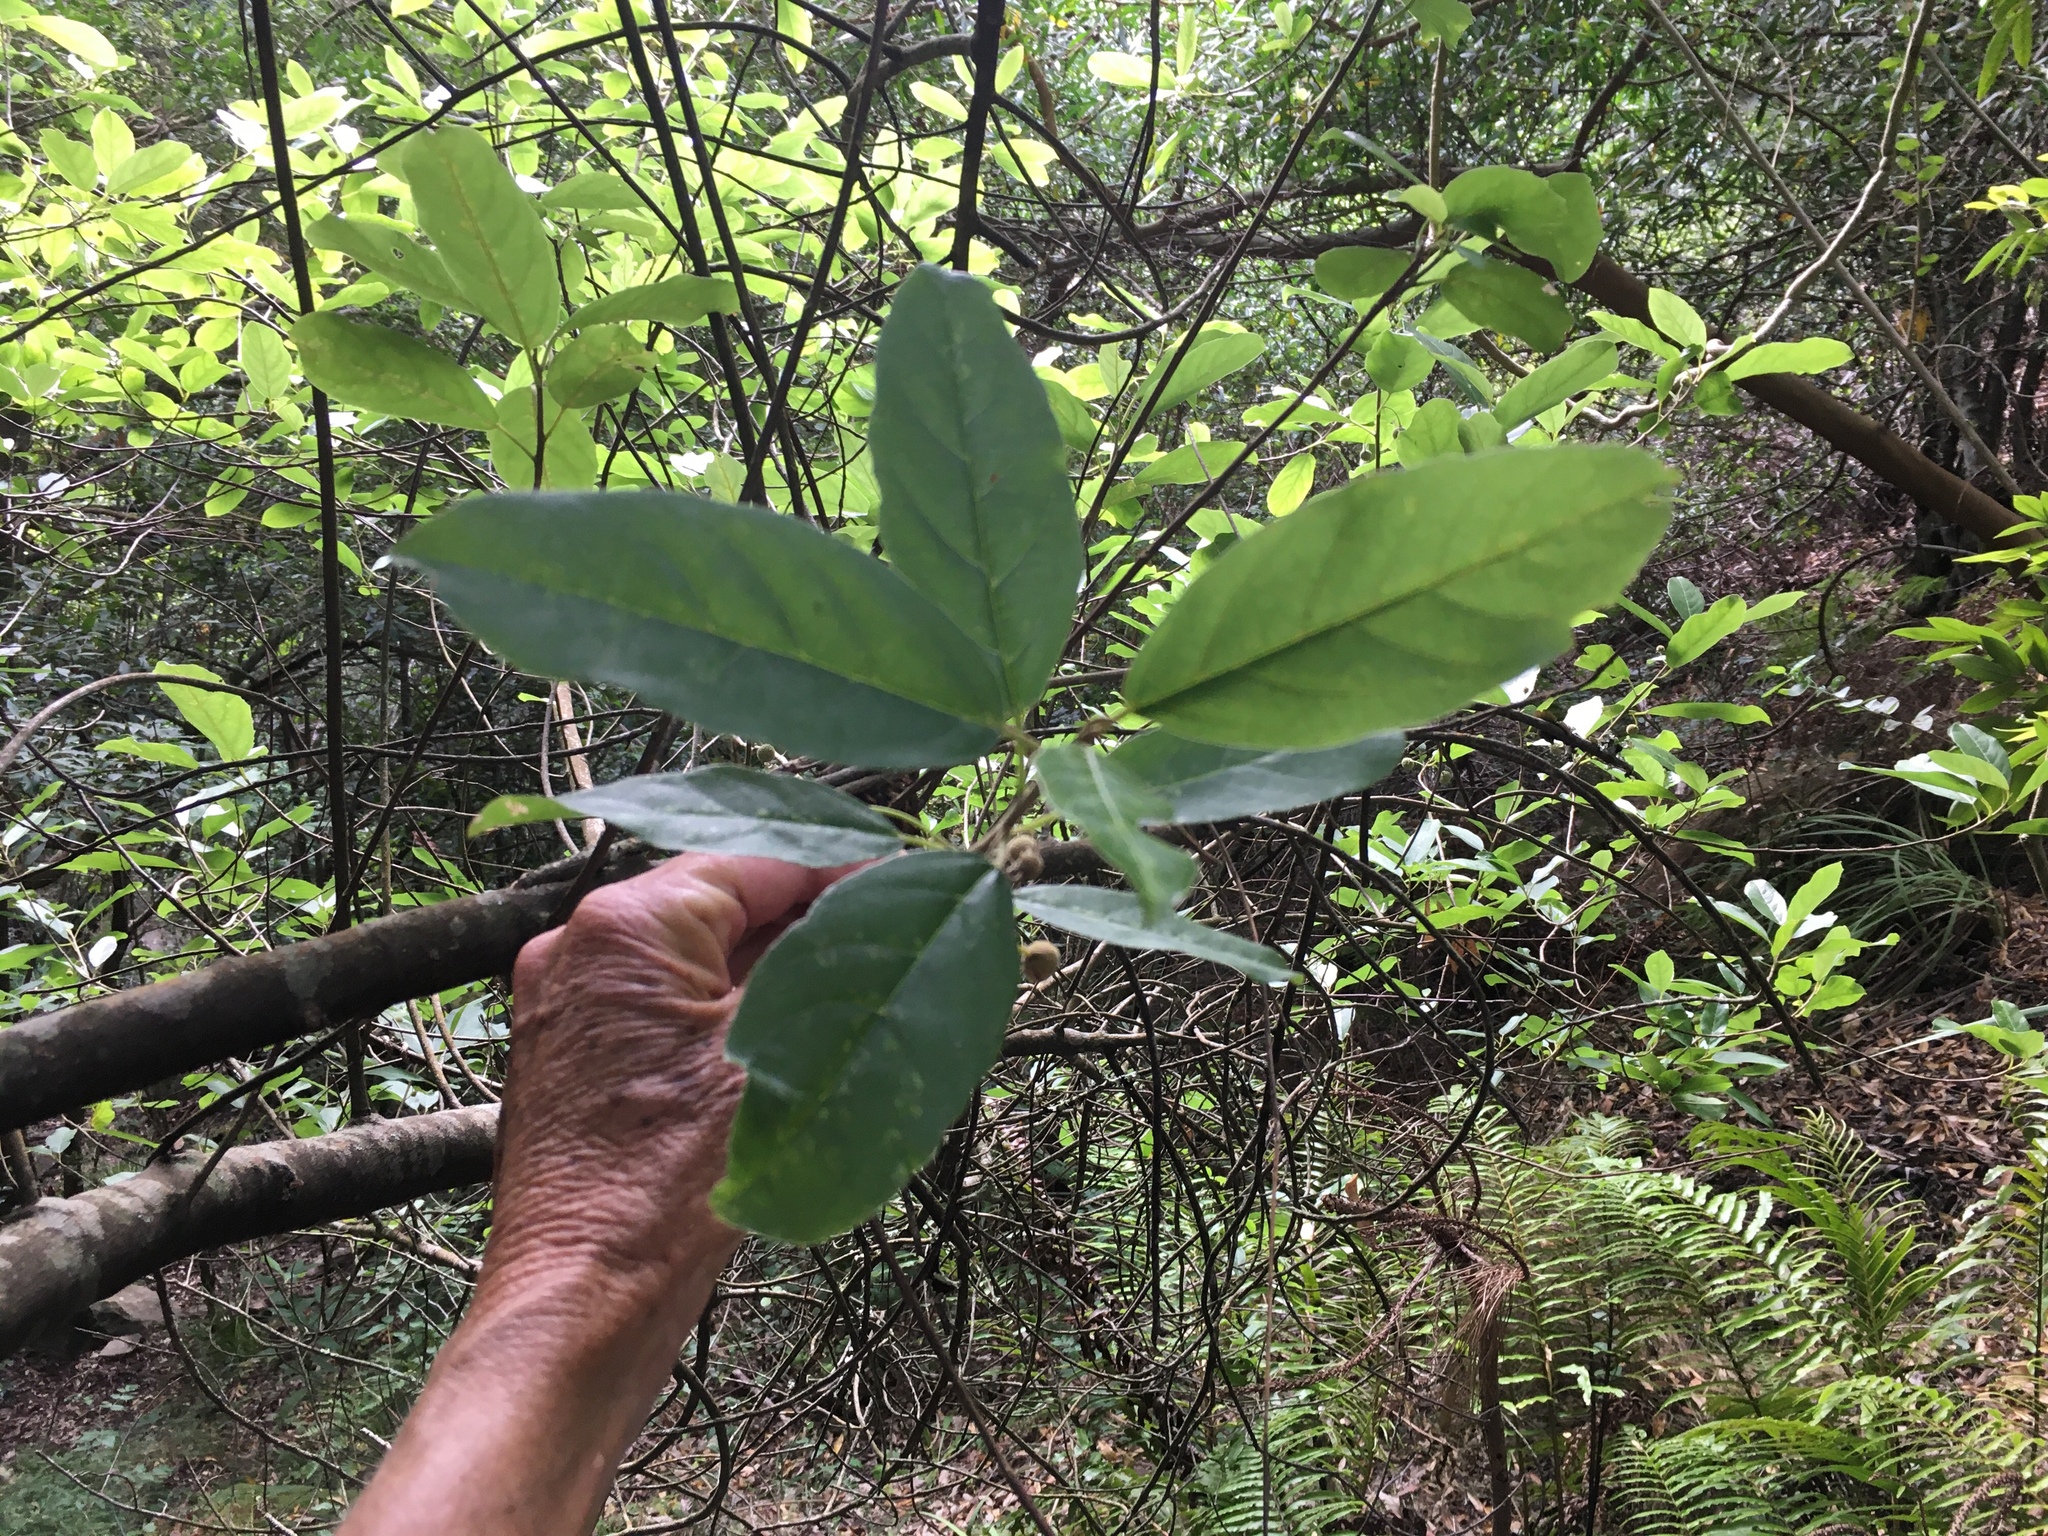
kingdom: Plantae
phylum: Tracheophyta
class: Magnoliopsida
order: Malpighiales
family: Achariaceae
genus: Kiggelaria
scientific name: Kiggelaria africana
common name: Wild peach
